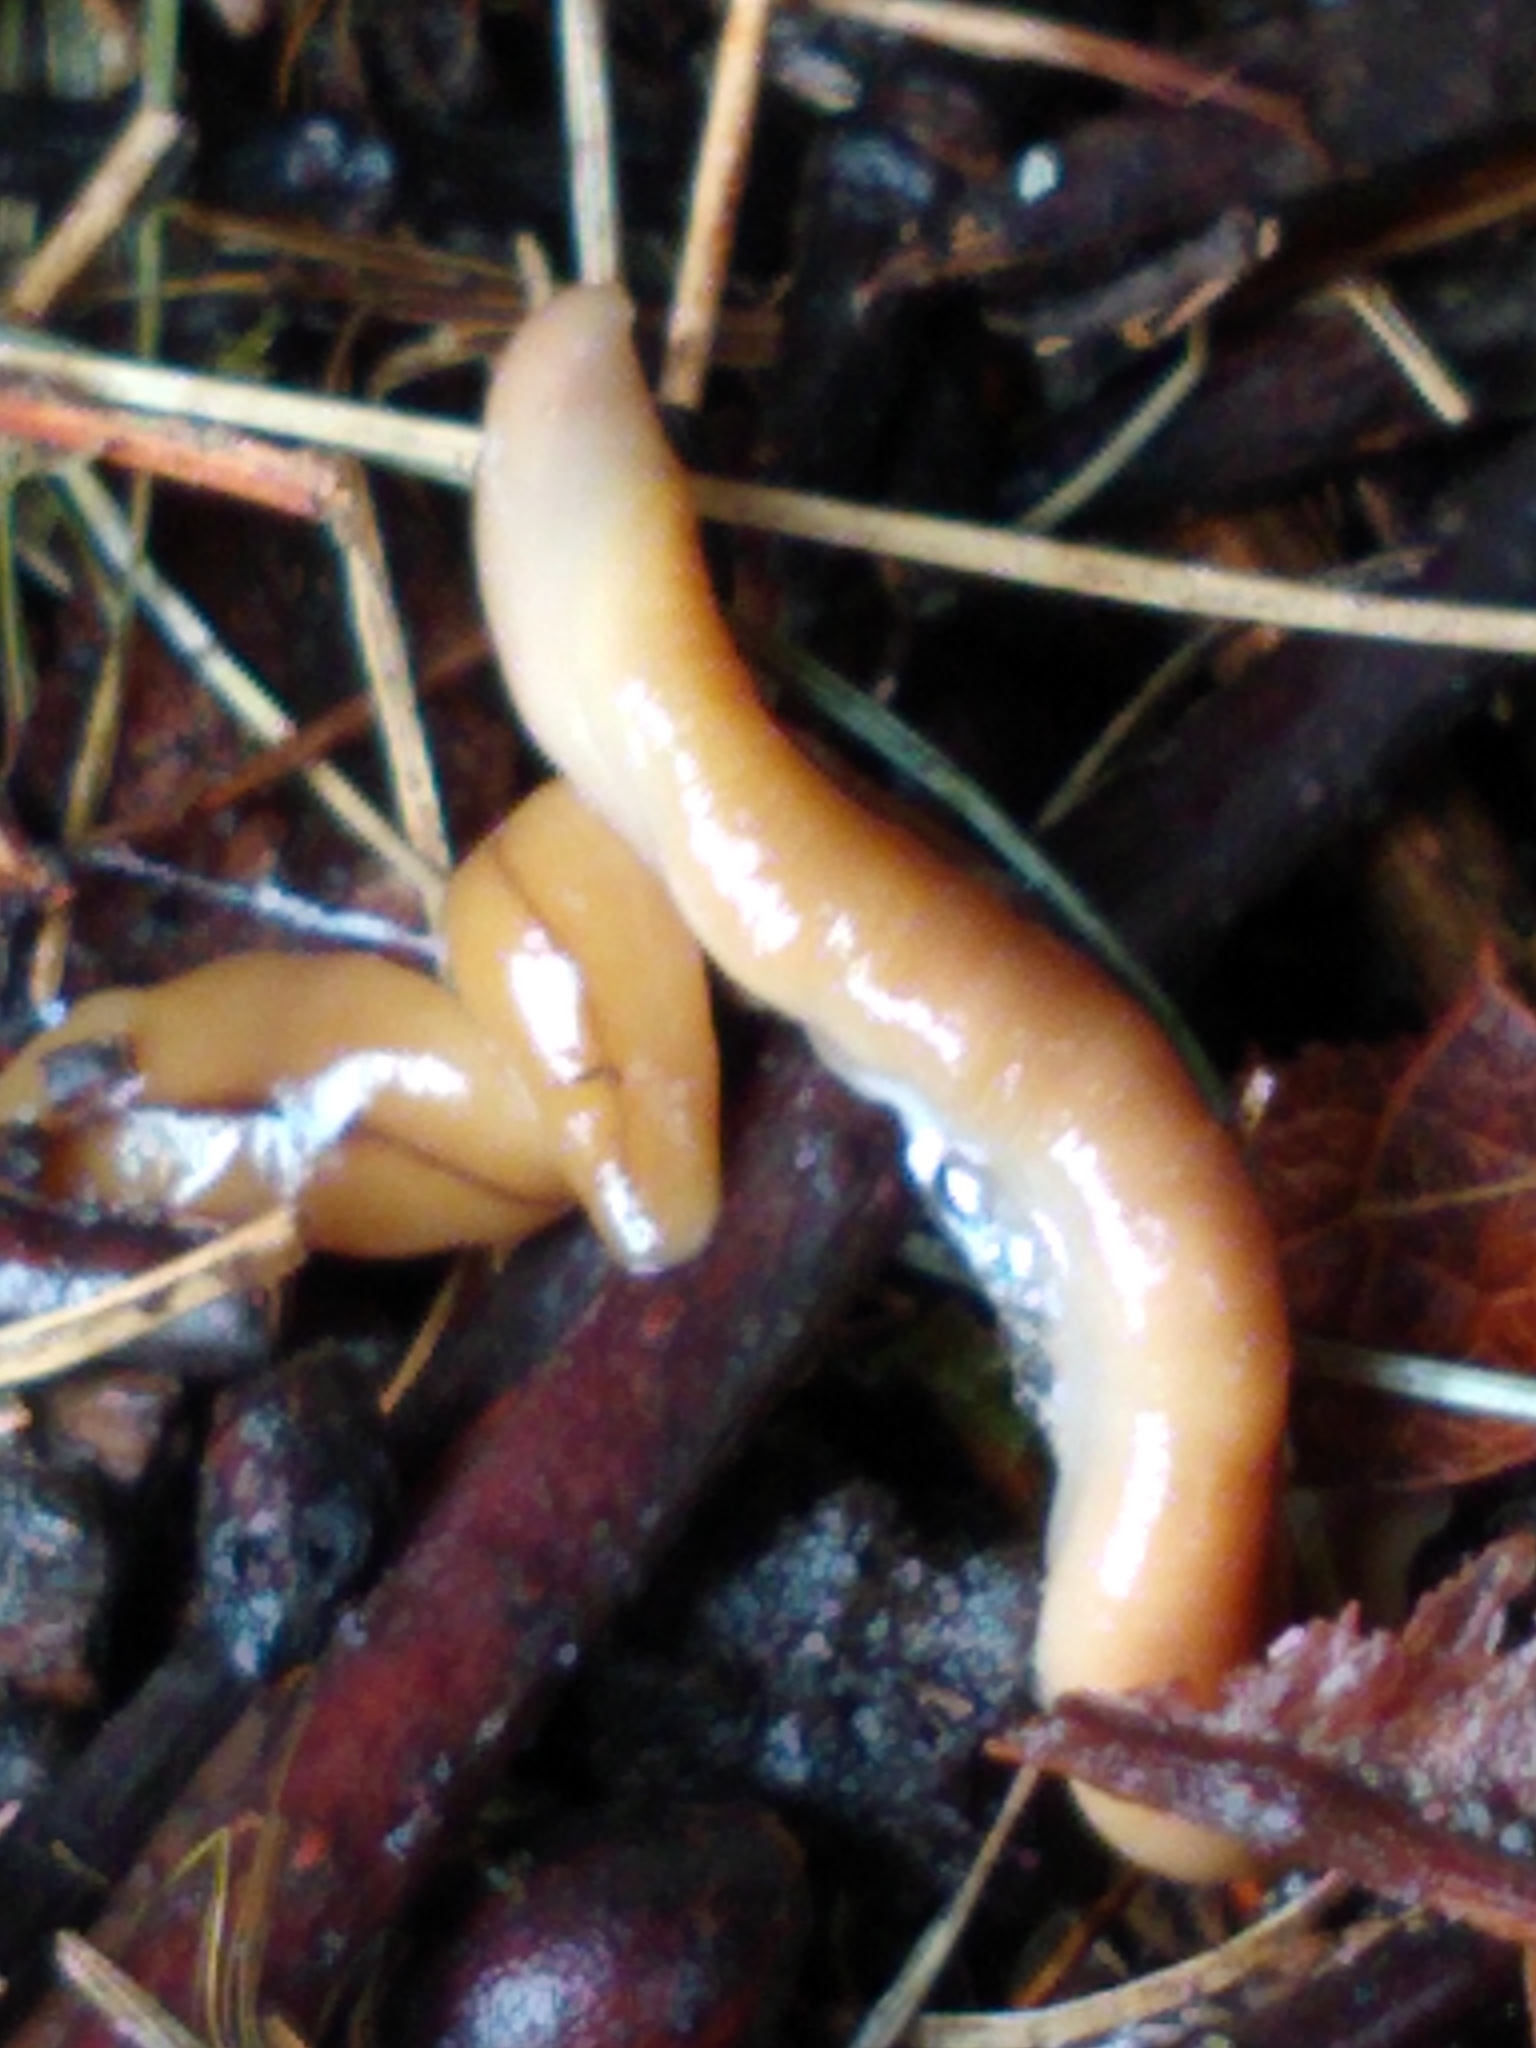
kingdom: Animalia
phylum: Platyhelminthes
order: Tricladida
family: Geoplanidae
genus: Bipalium
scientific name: Bipalium adventitium
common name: Land planarian
